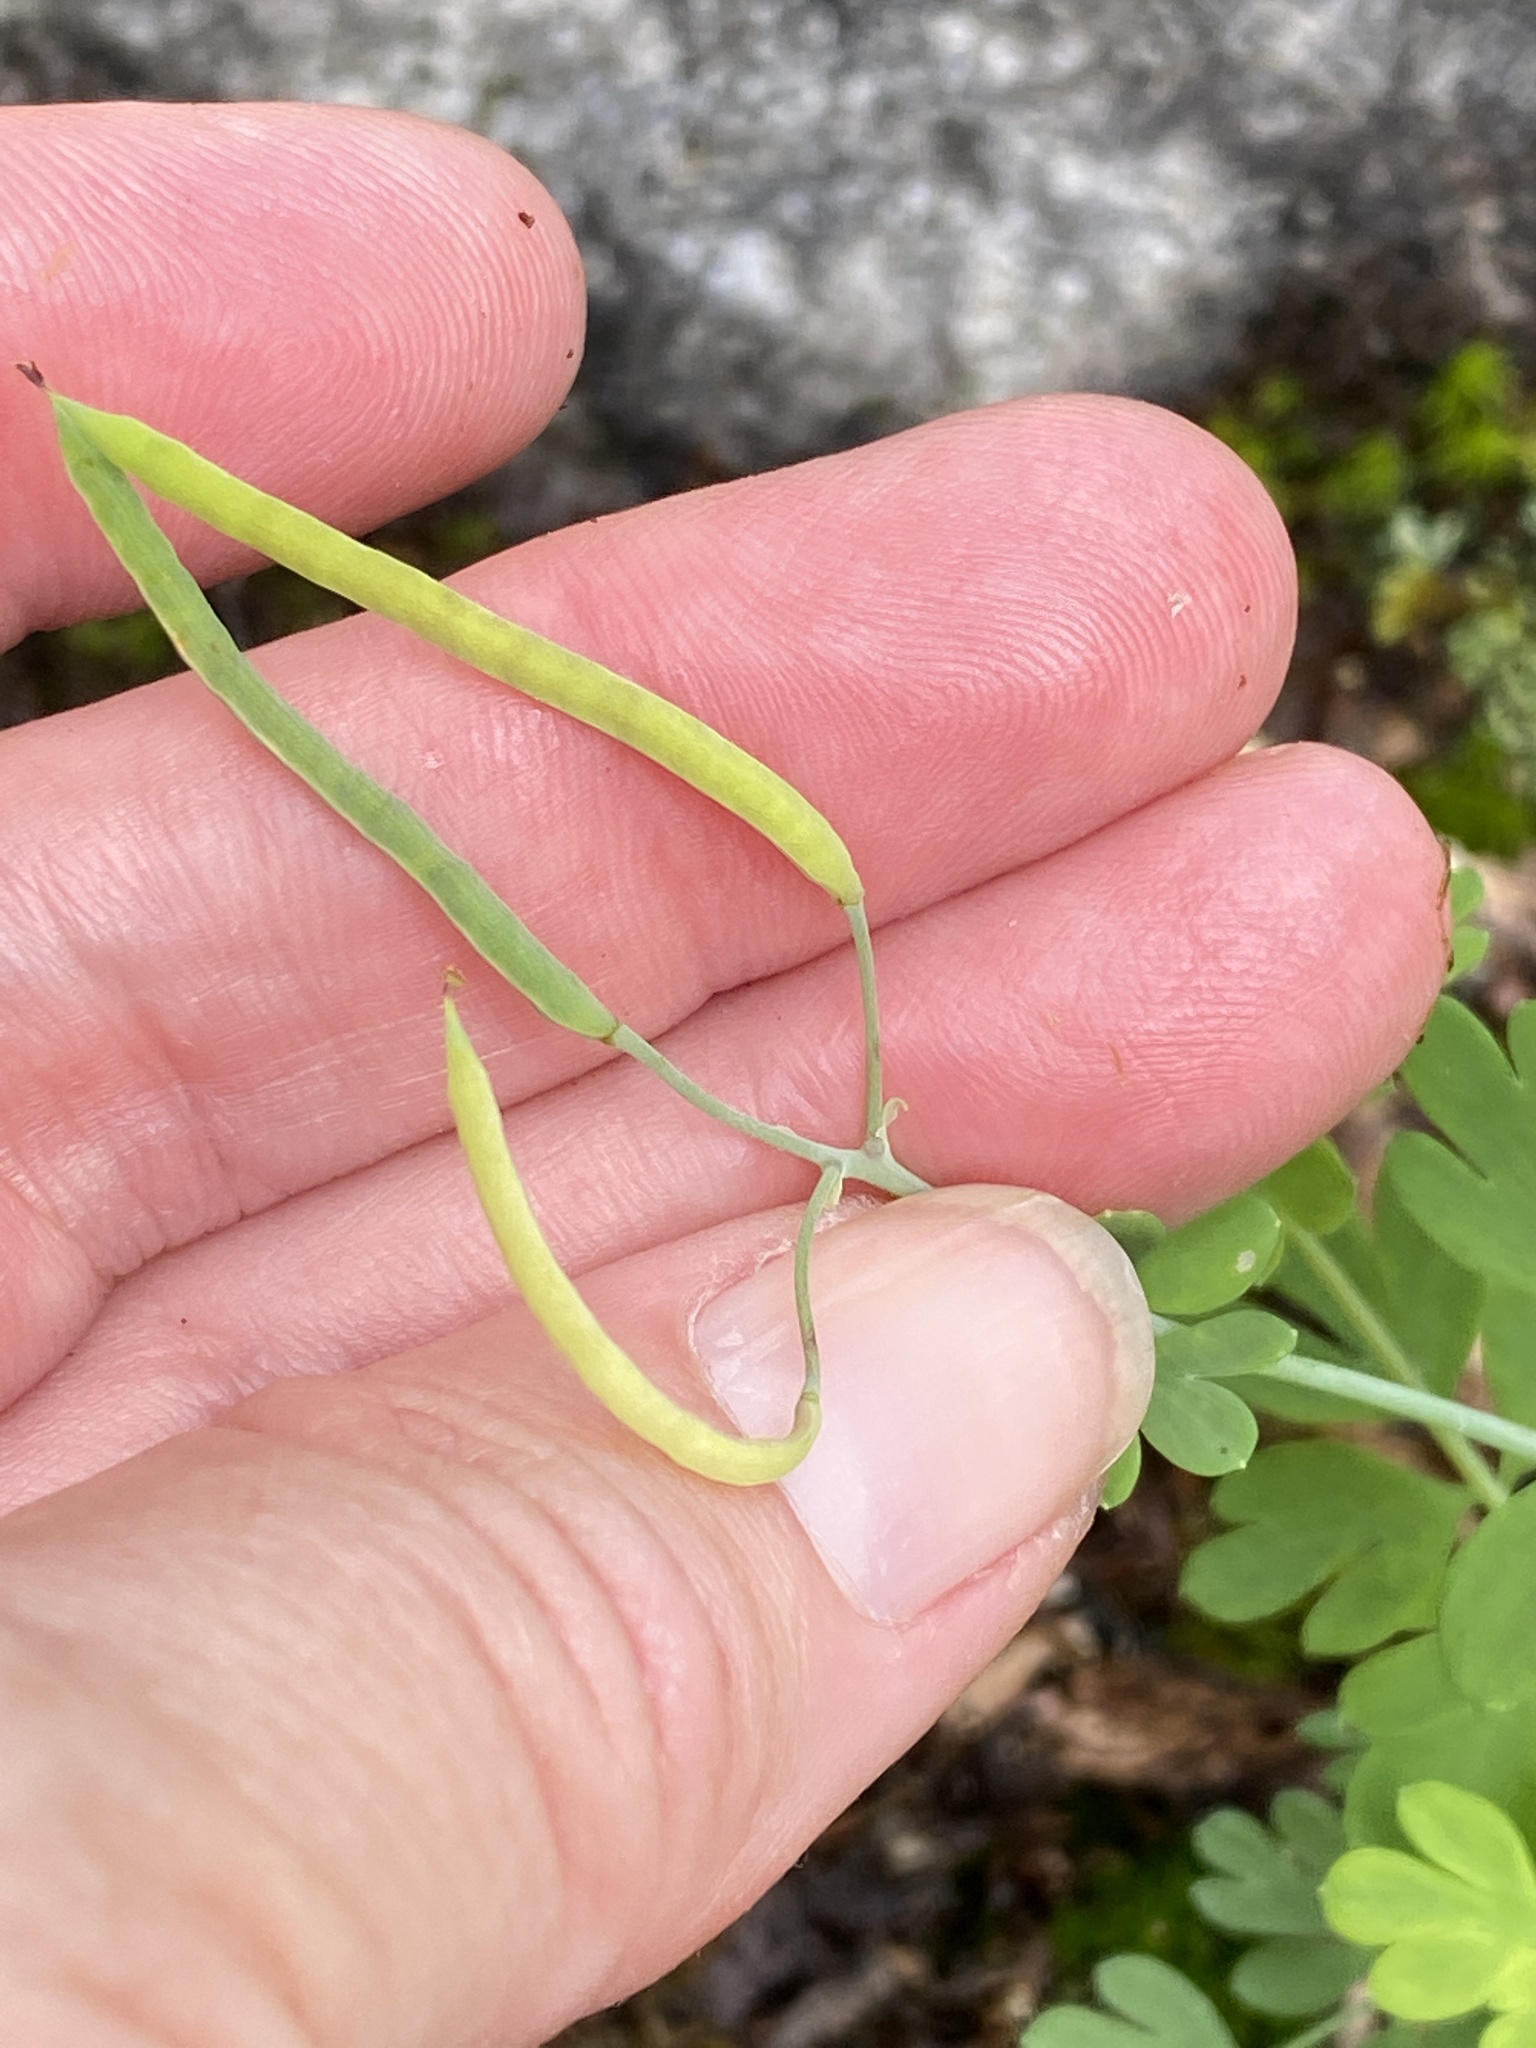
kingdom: Plantae
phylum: Tracheophyta
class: Magnoliopsida
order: Ranunculales
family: Papaveraceae
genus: Capnoides
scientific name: Capnoides sempervirens
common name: Rock harlequin
